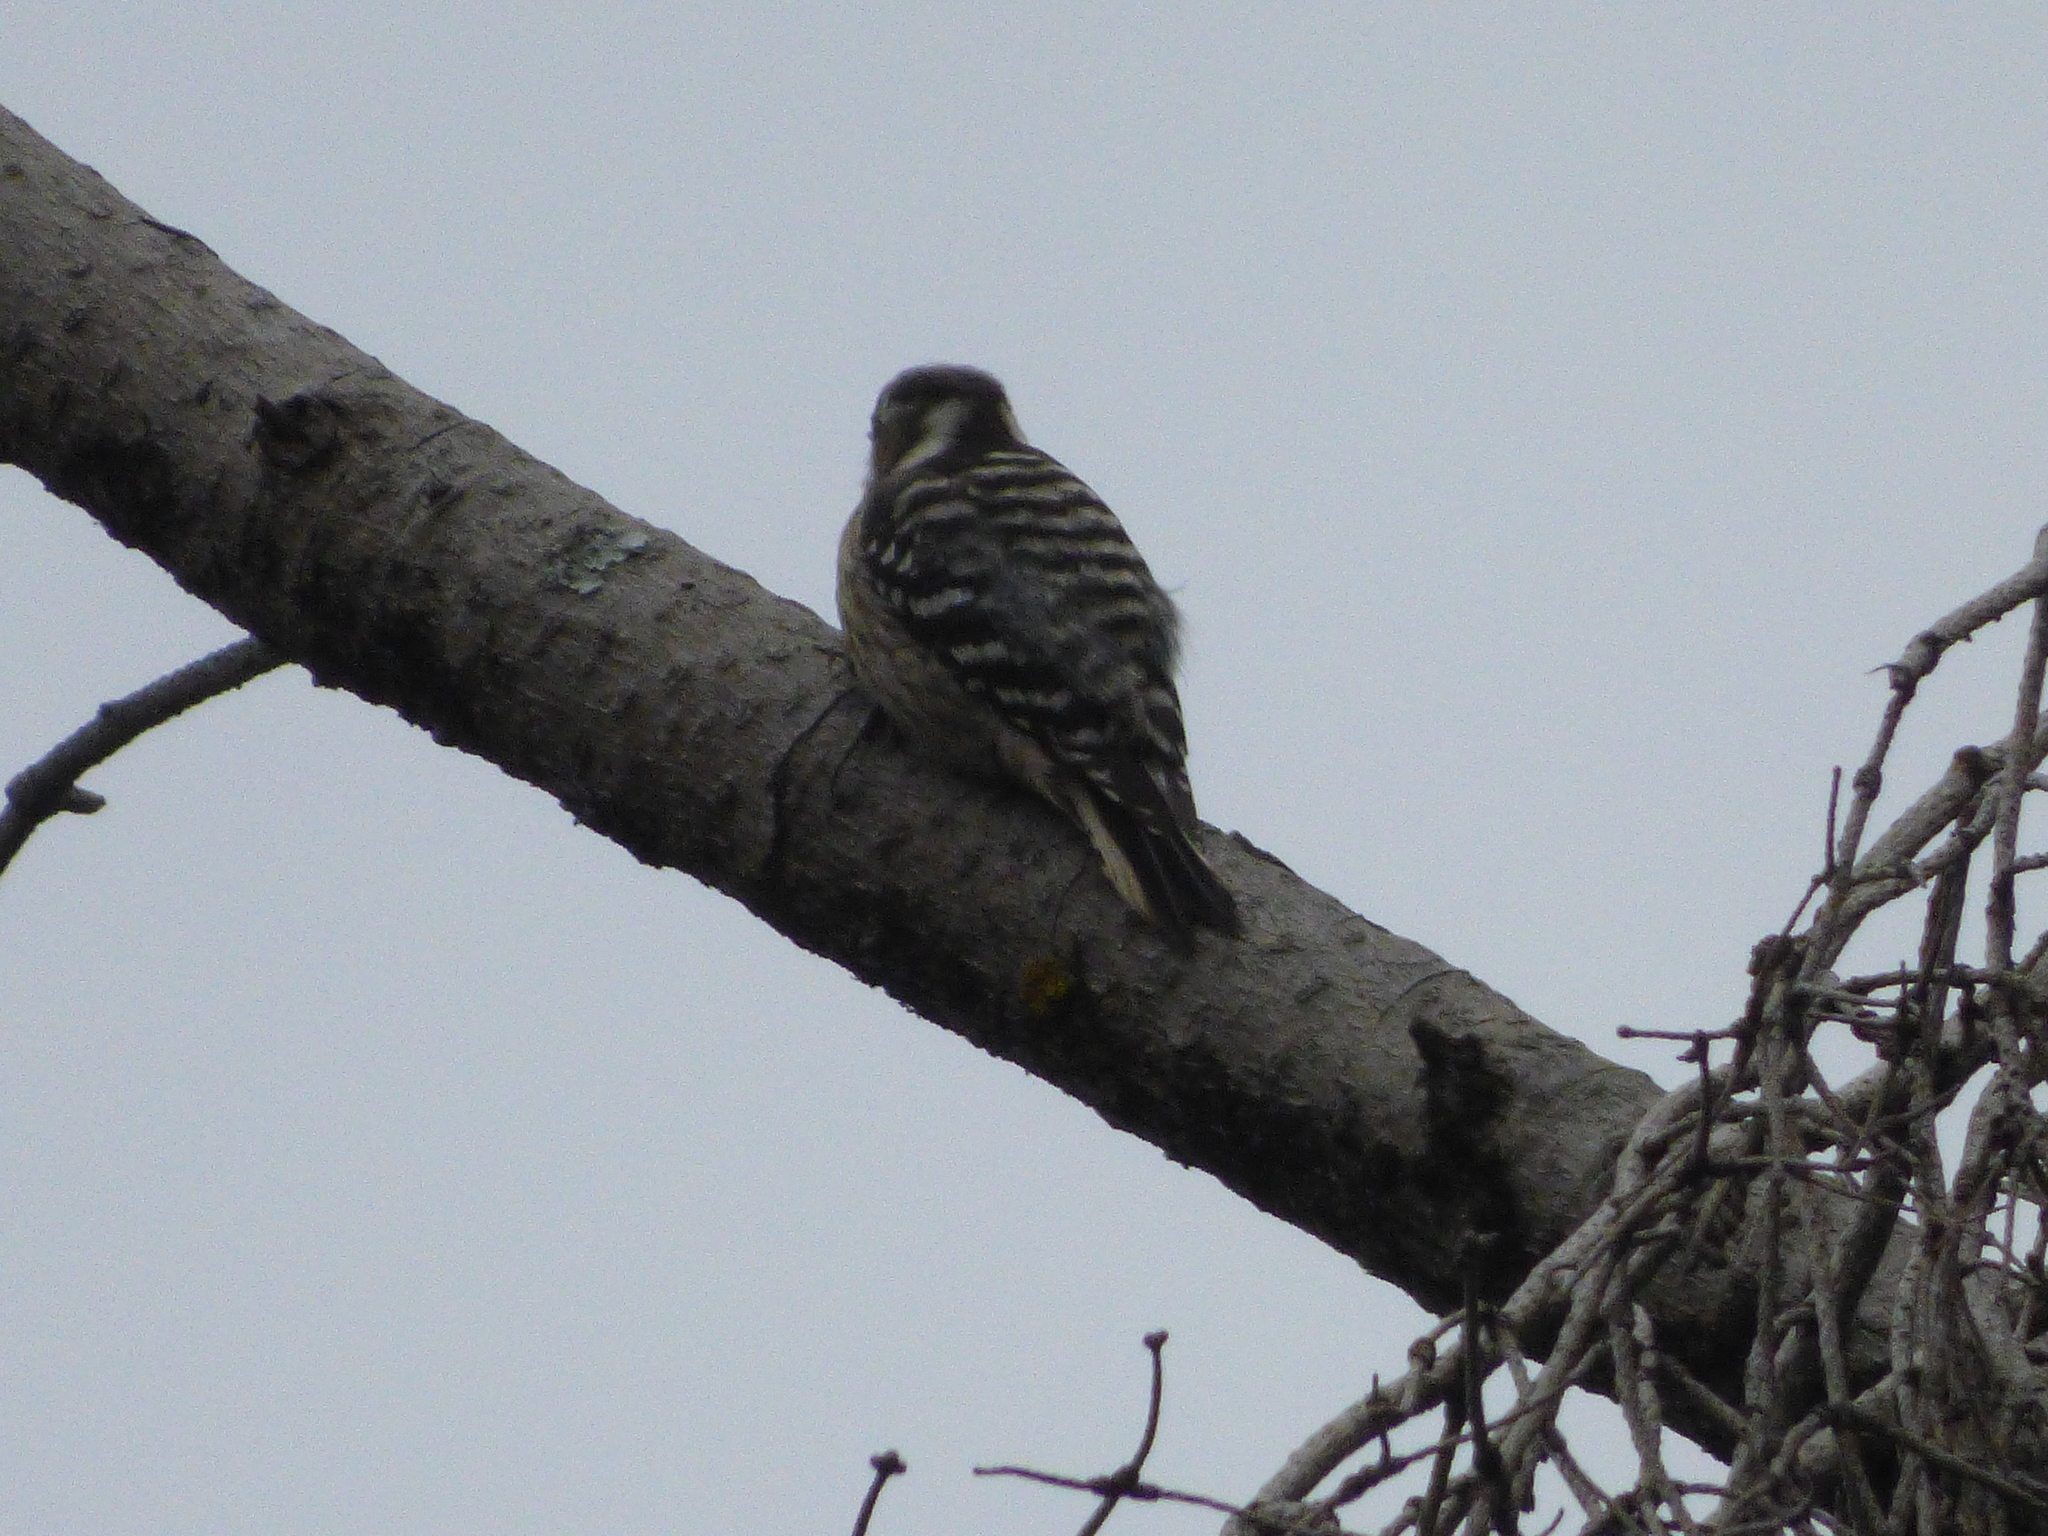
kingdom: Animalia
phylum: Chordata
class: Aves
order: Piciformes
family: Picidae
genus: Yungipicus
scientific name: Yungipicus kizuki
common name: Japanese pygmy woodpecker
